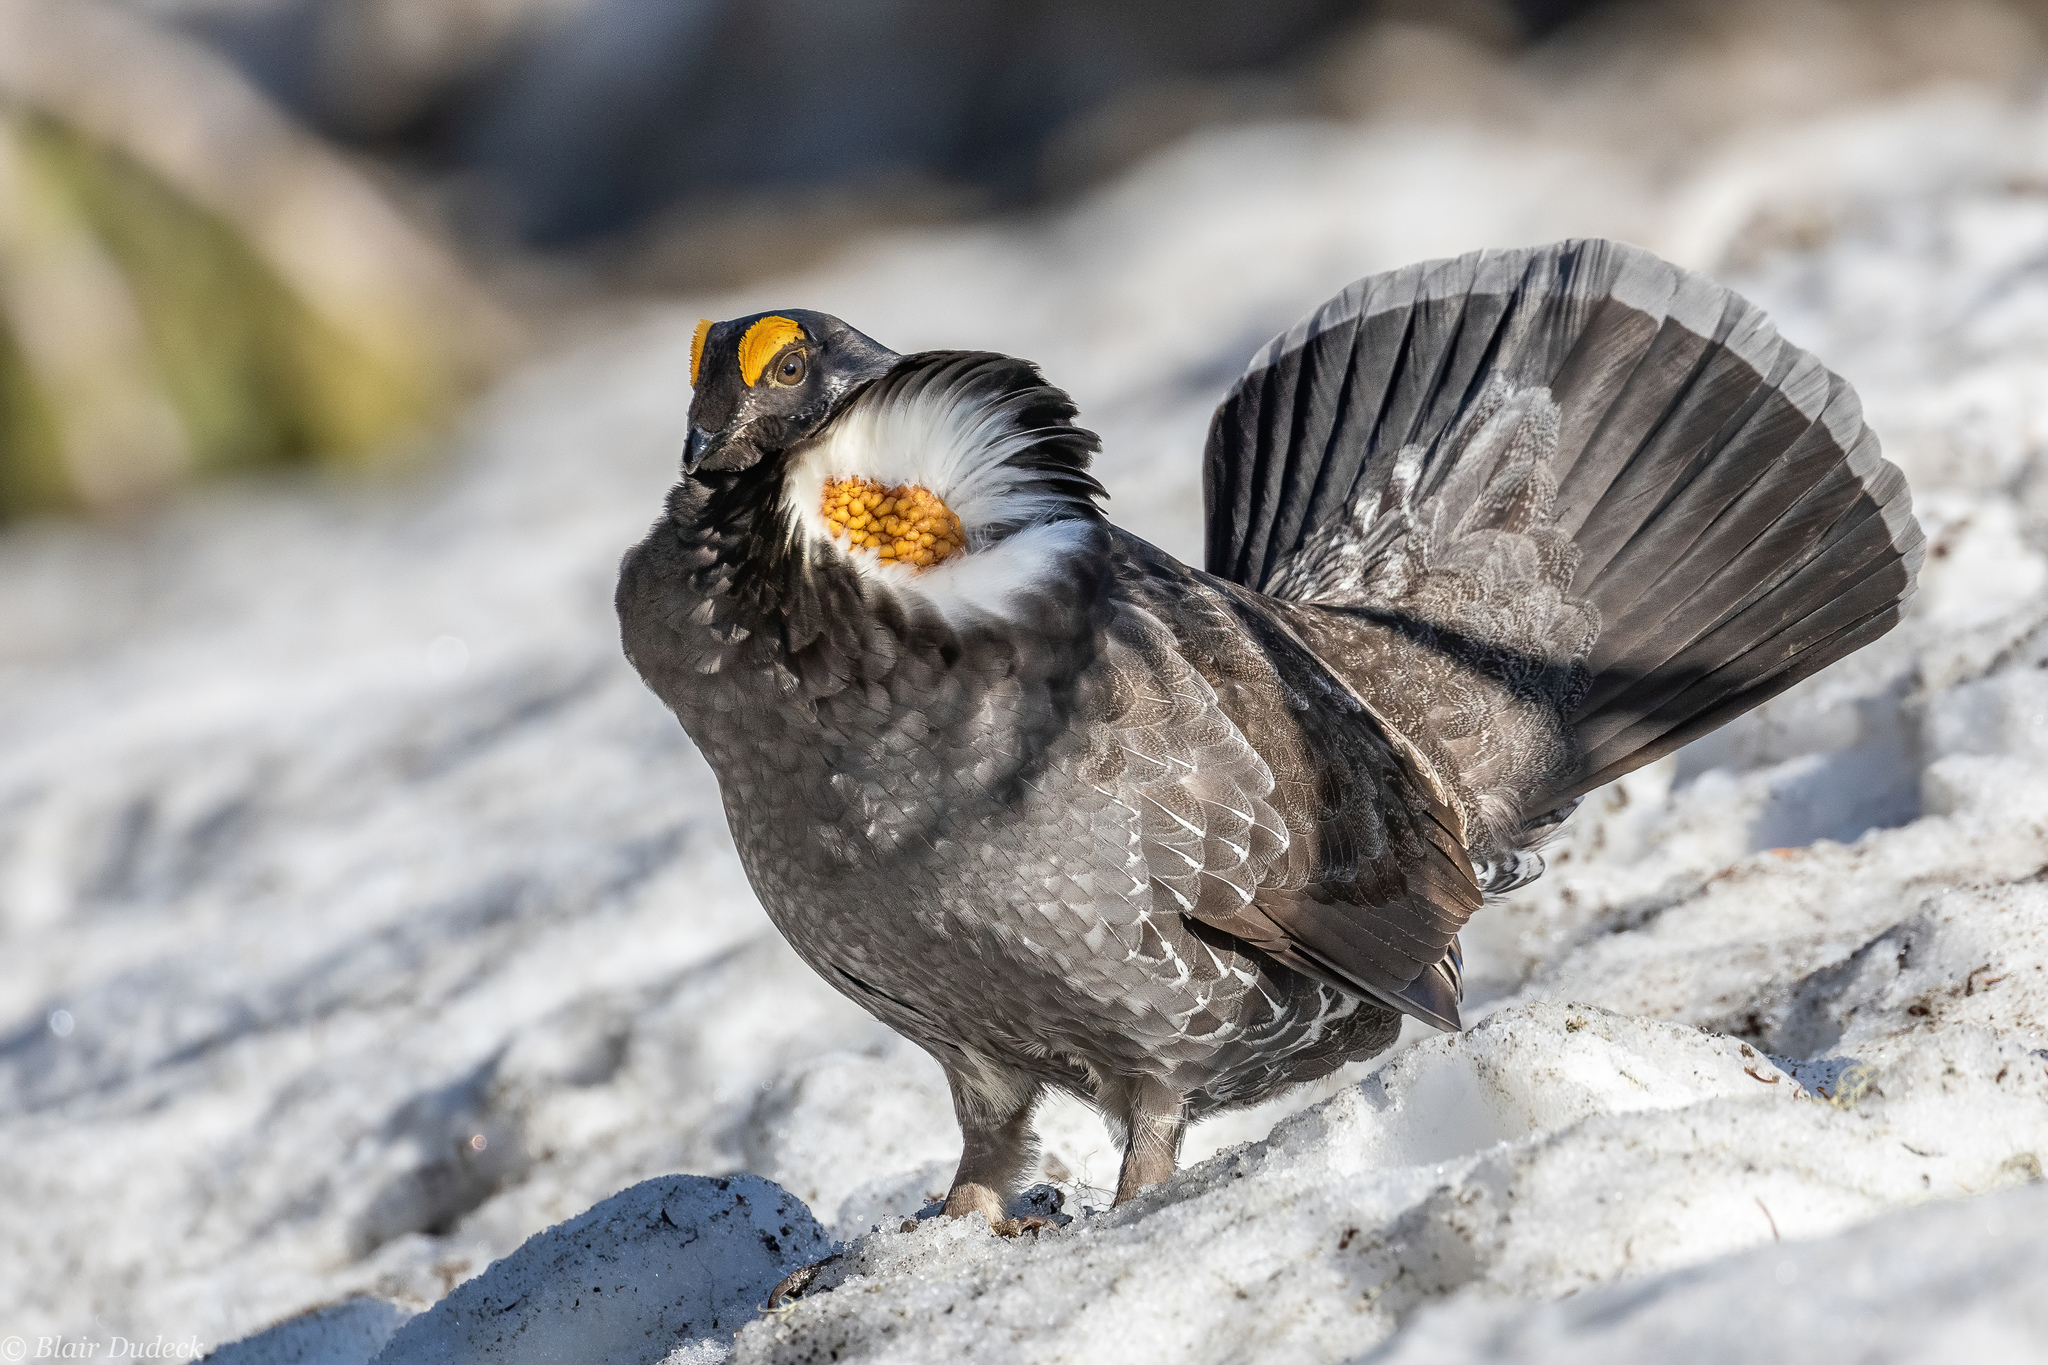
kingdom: Animalia
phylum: Chordata
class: Aves
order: Galliformes
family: Phasianidae
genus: Dendragapus
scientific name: Dendragapus fuliginosus
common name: Sooty grouse
